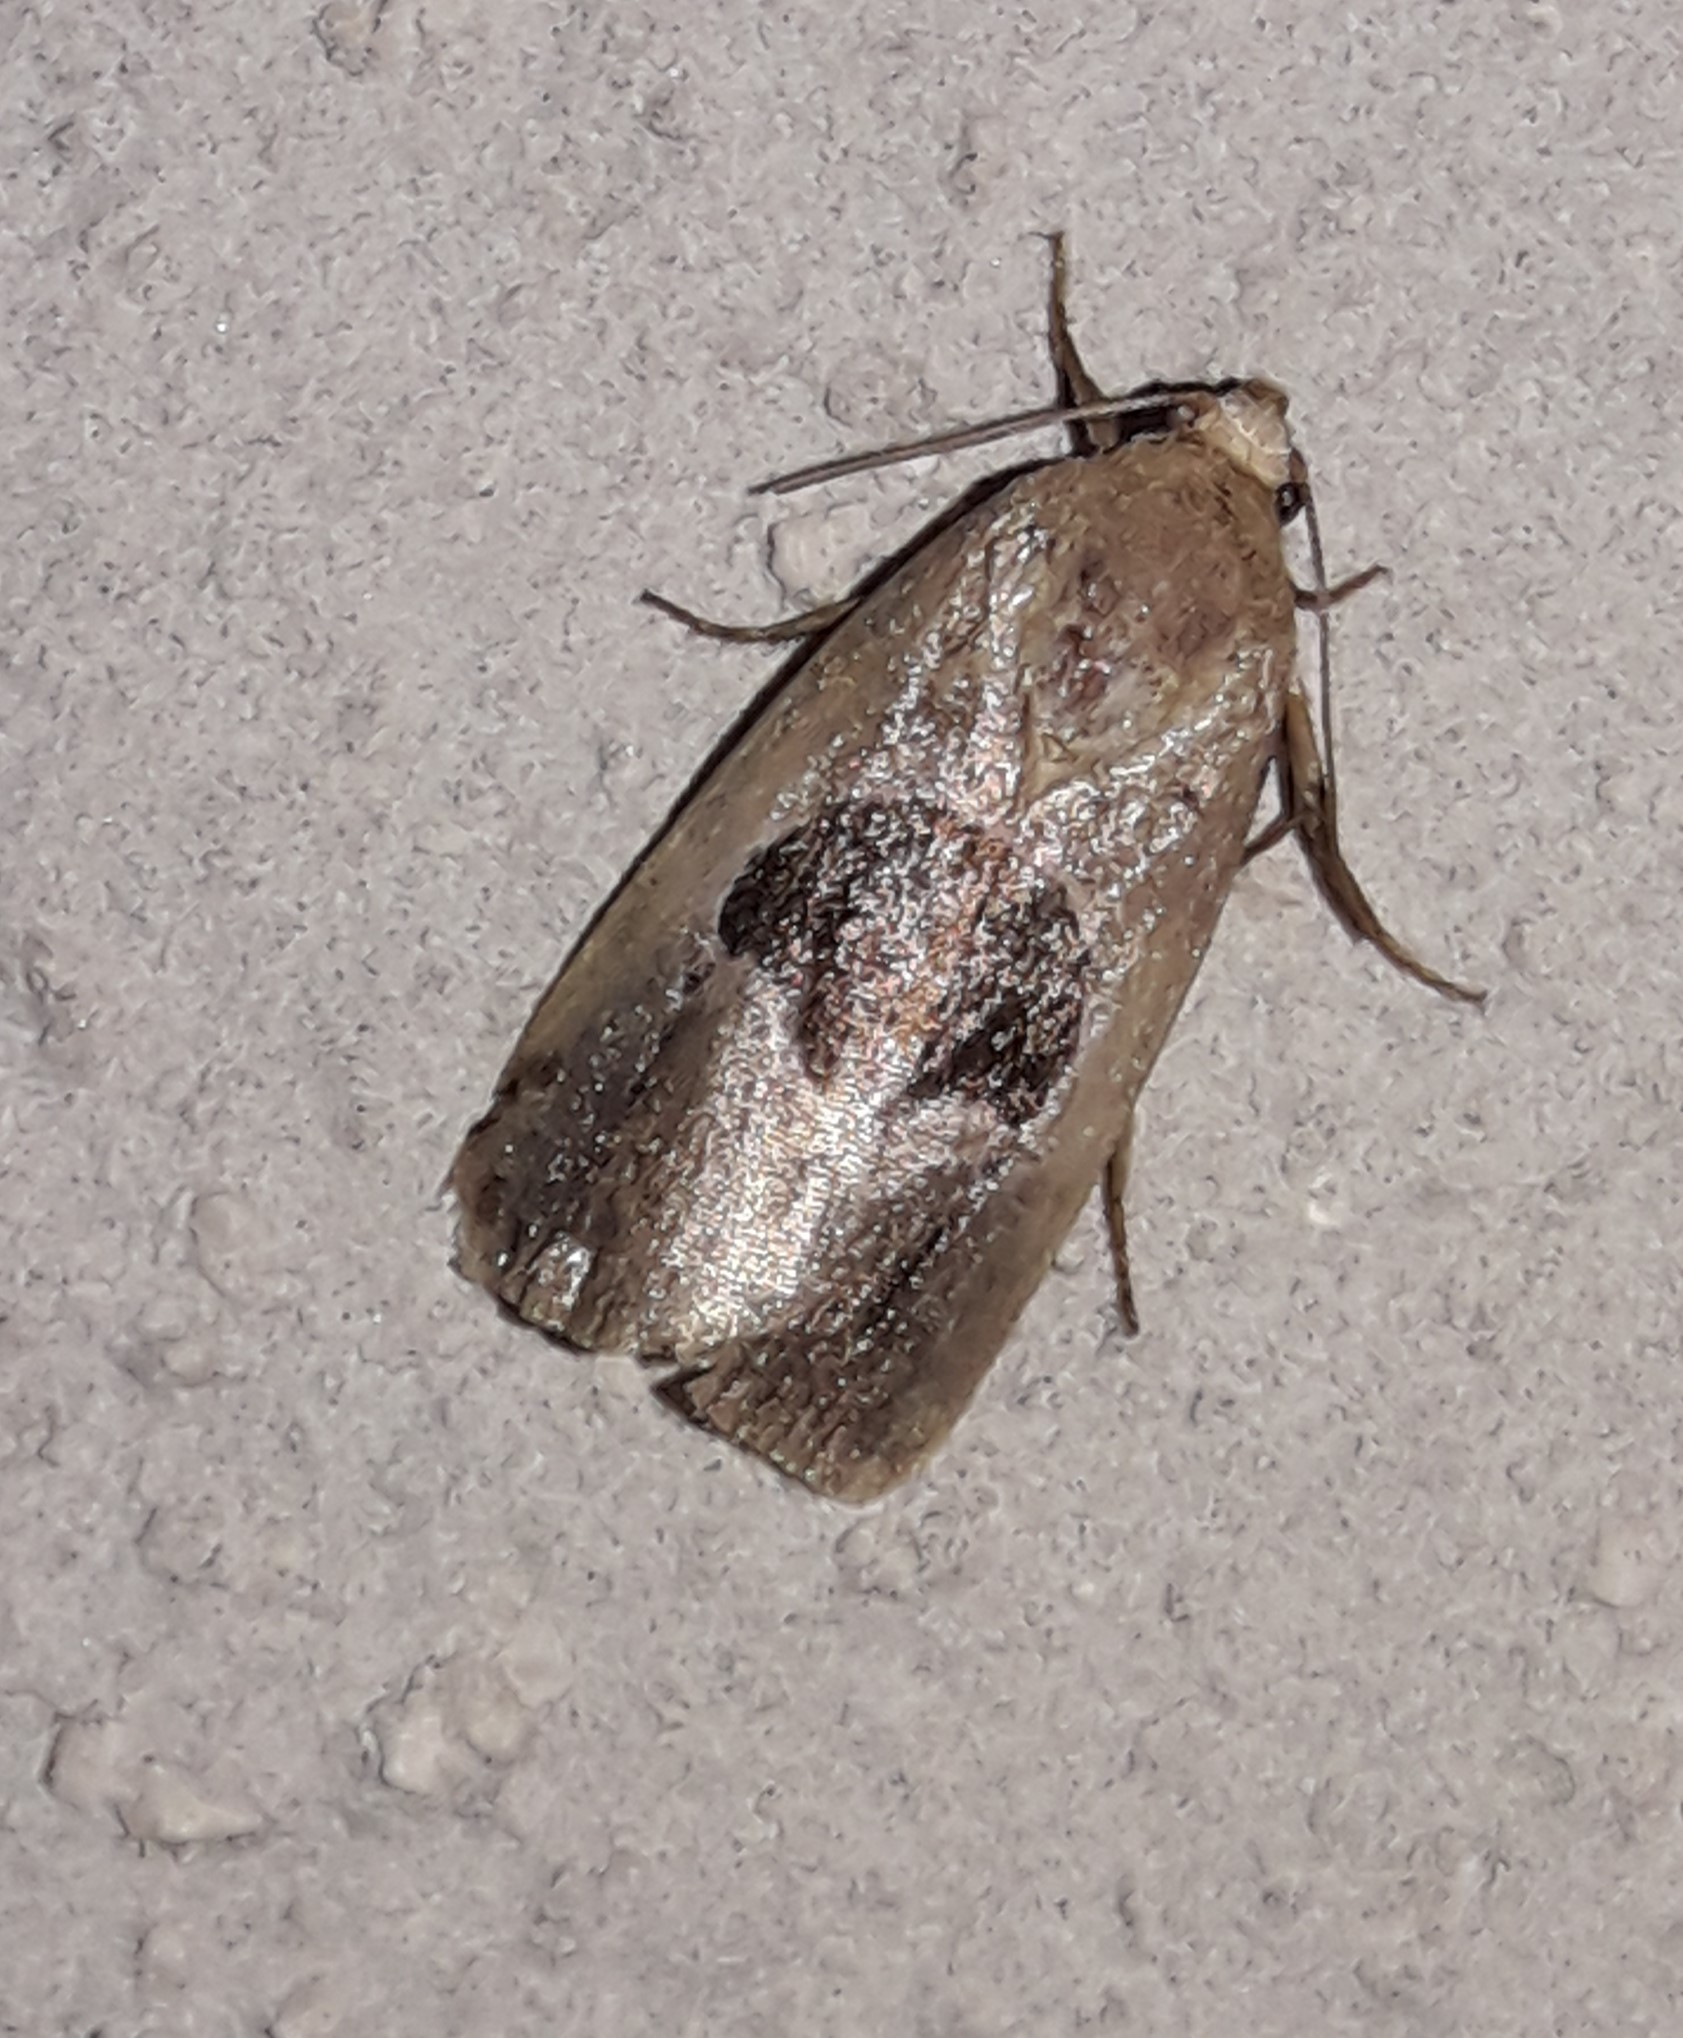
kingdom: Animalia
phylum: Arthropoda
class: Insecta
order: Lepidoptera
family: Noctuidae
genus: Elaphria
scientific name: Elaphria deltoides
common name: Cutworm moth
